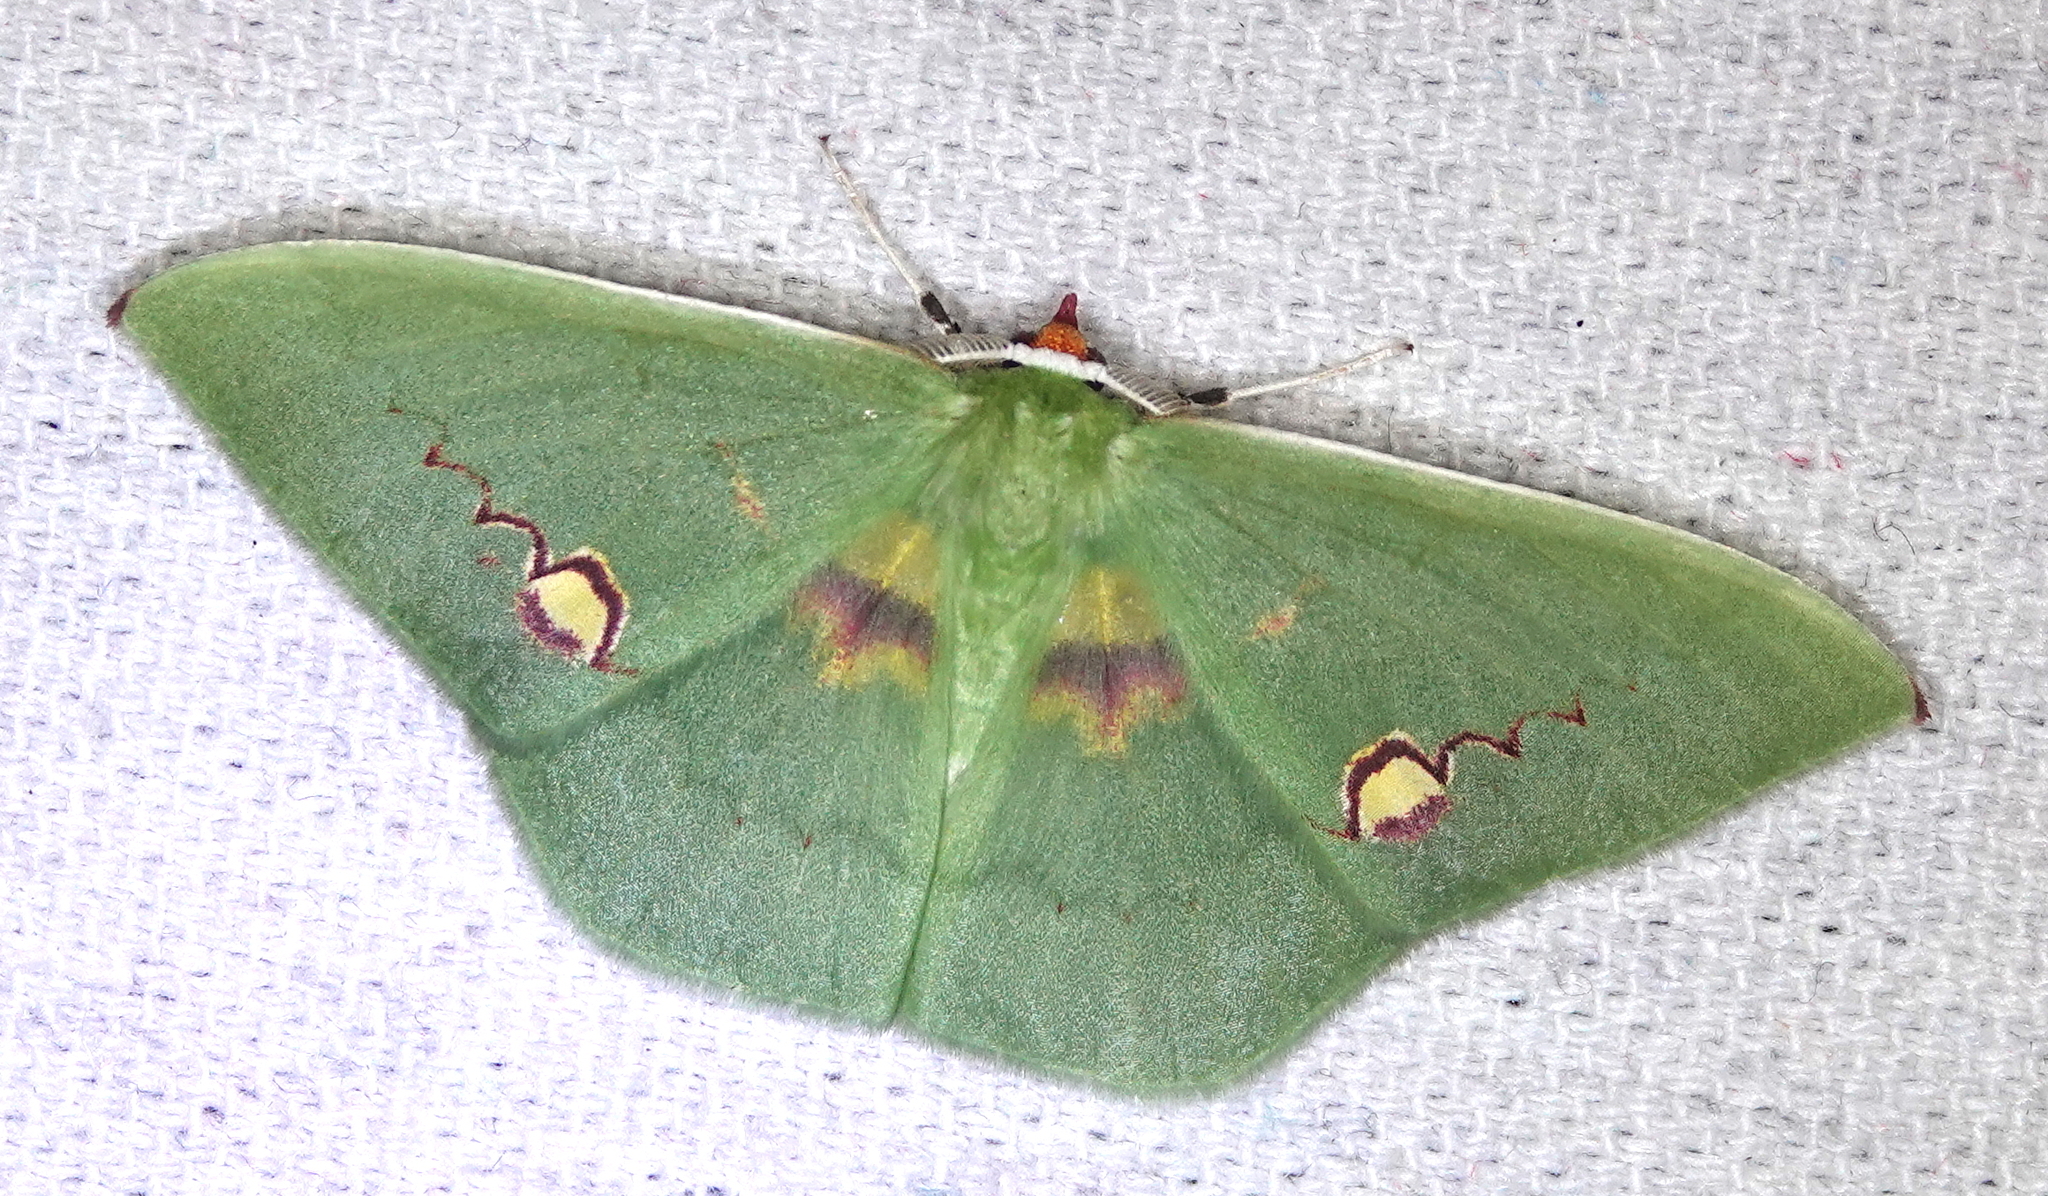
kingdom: Animalia
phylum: Arthropoda
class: Insecta
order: Lepidoptera
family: Geometridae
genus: Rhodochlora
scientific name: Rhodochlora endognoma
